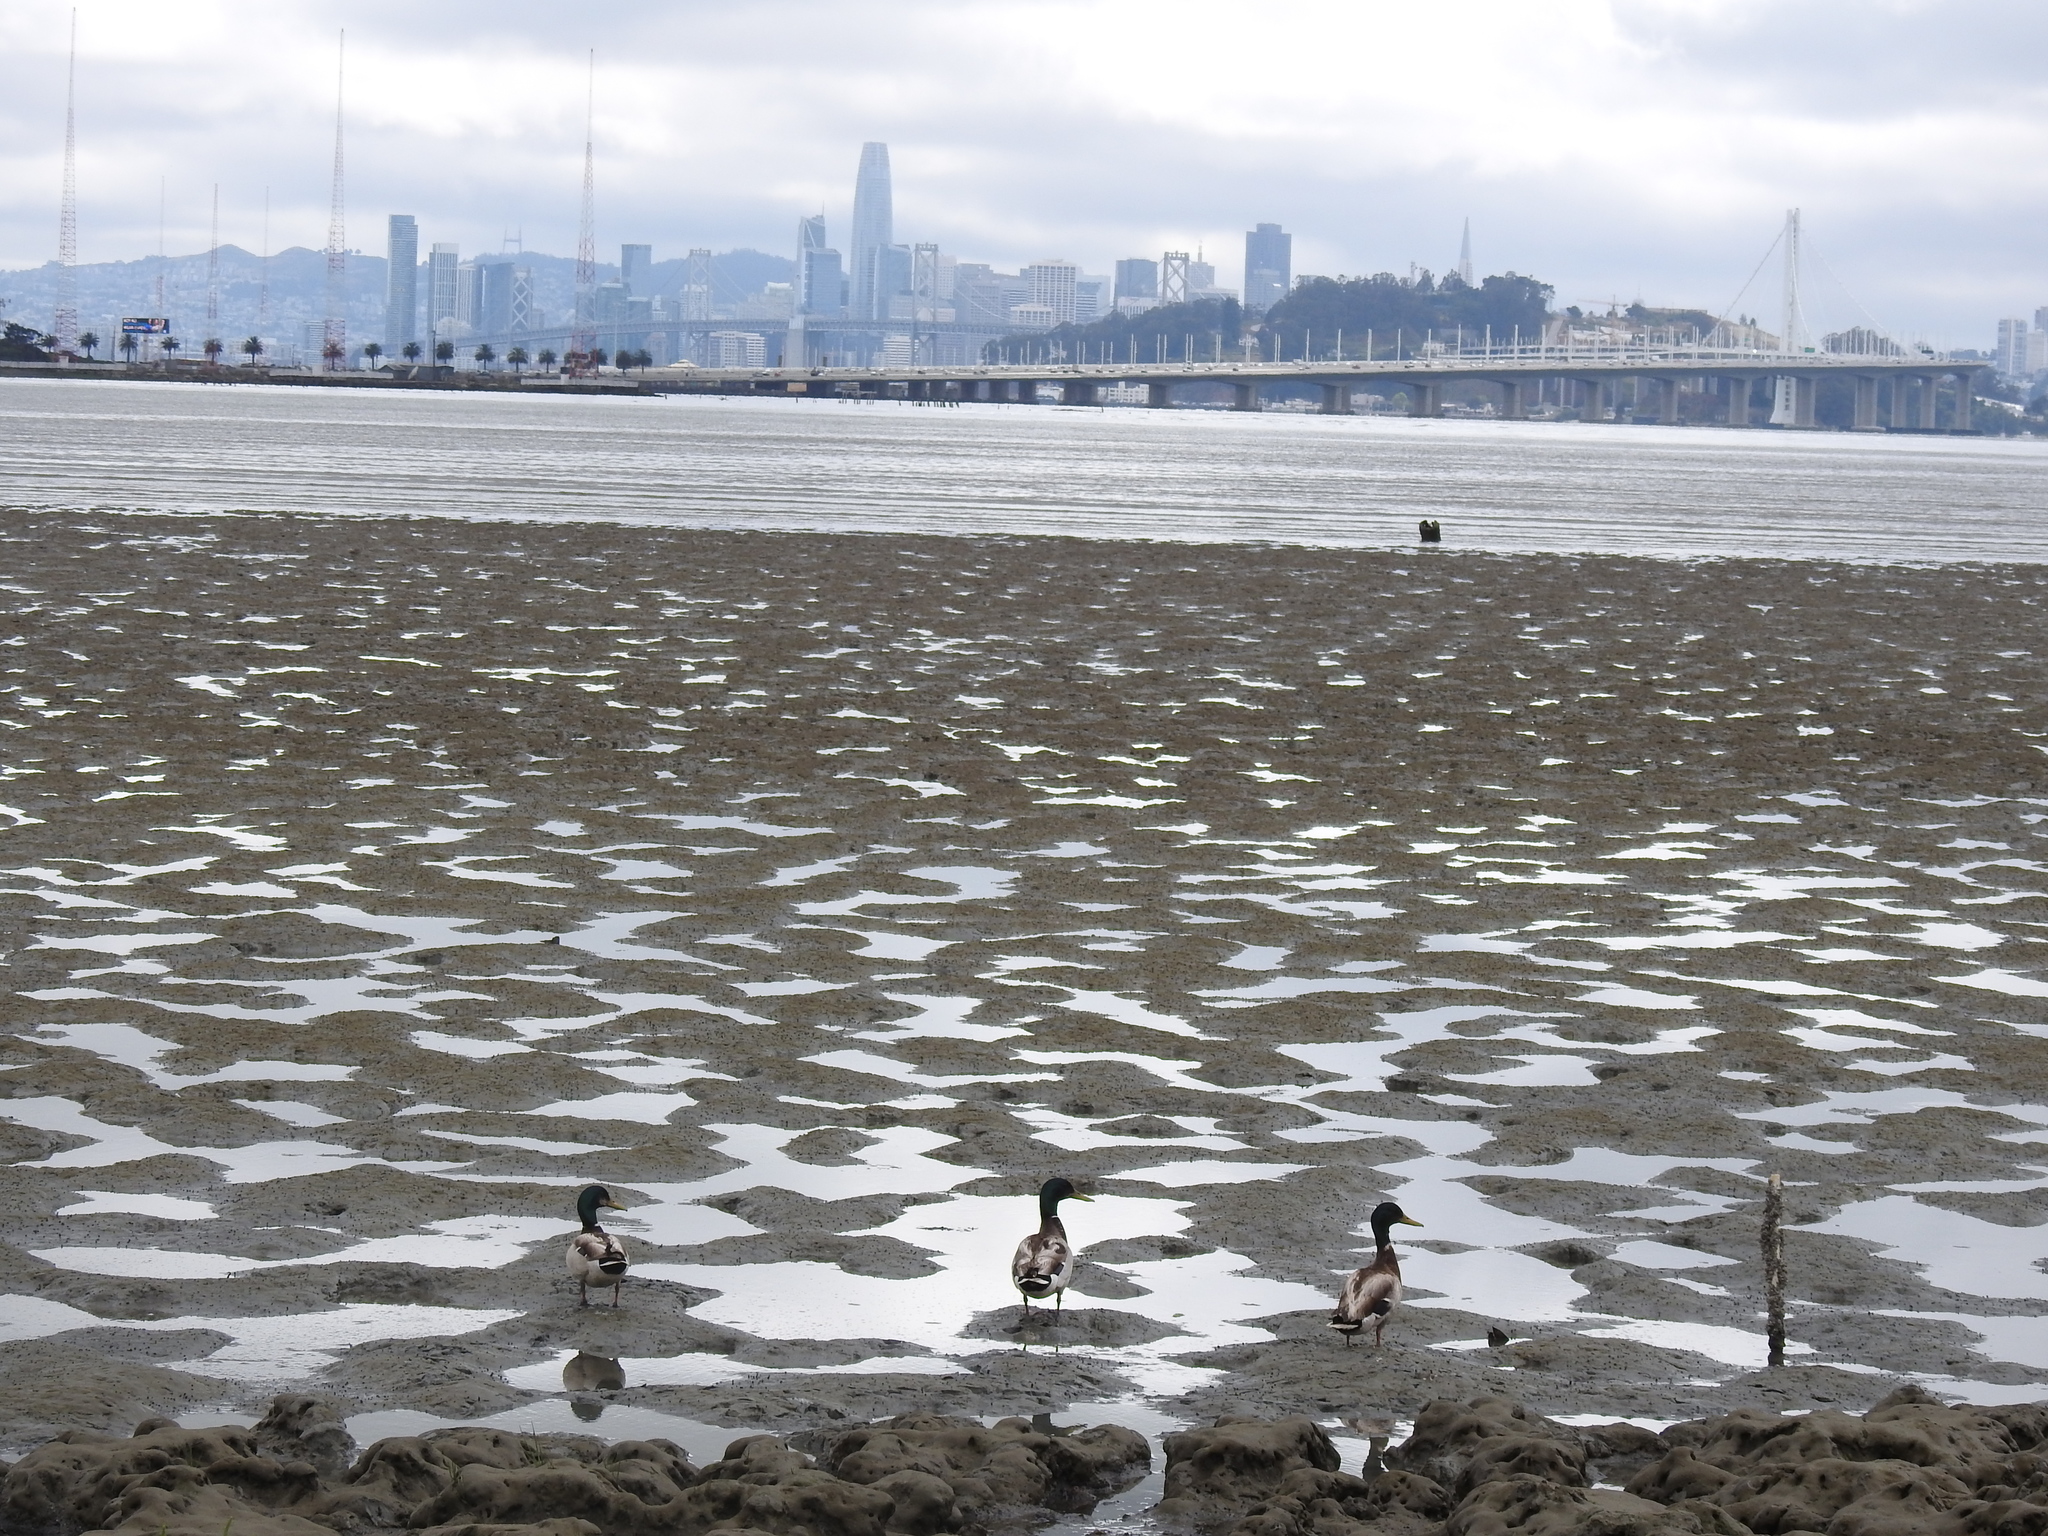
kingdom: Animalia
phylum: Chordata
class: Aves
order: Anseriformes
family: Anatidae
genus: Anas
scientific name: Anas platyrhynchos
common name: Mallard
